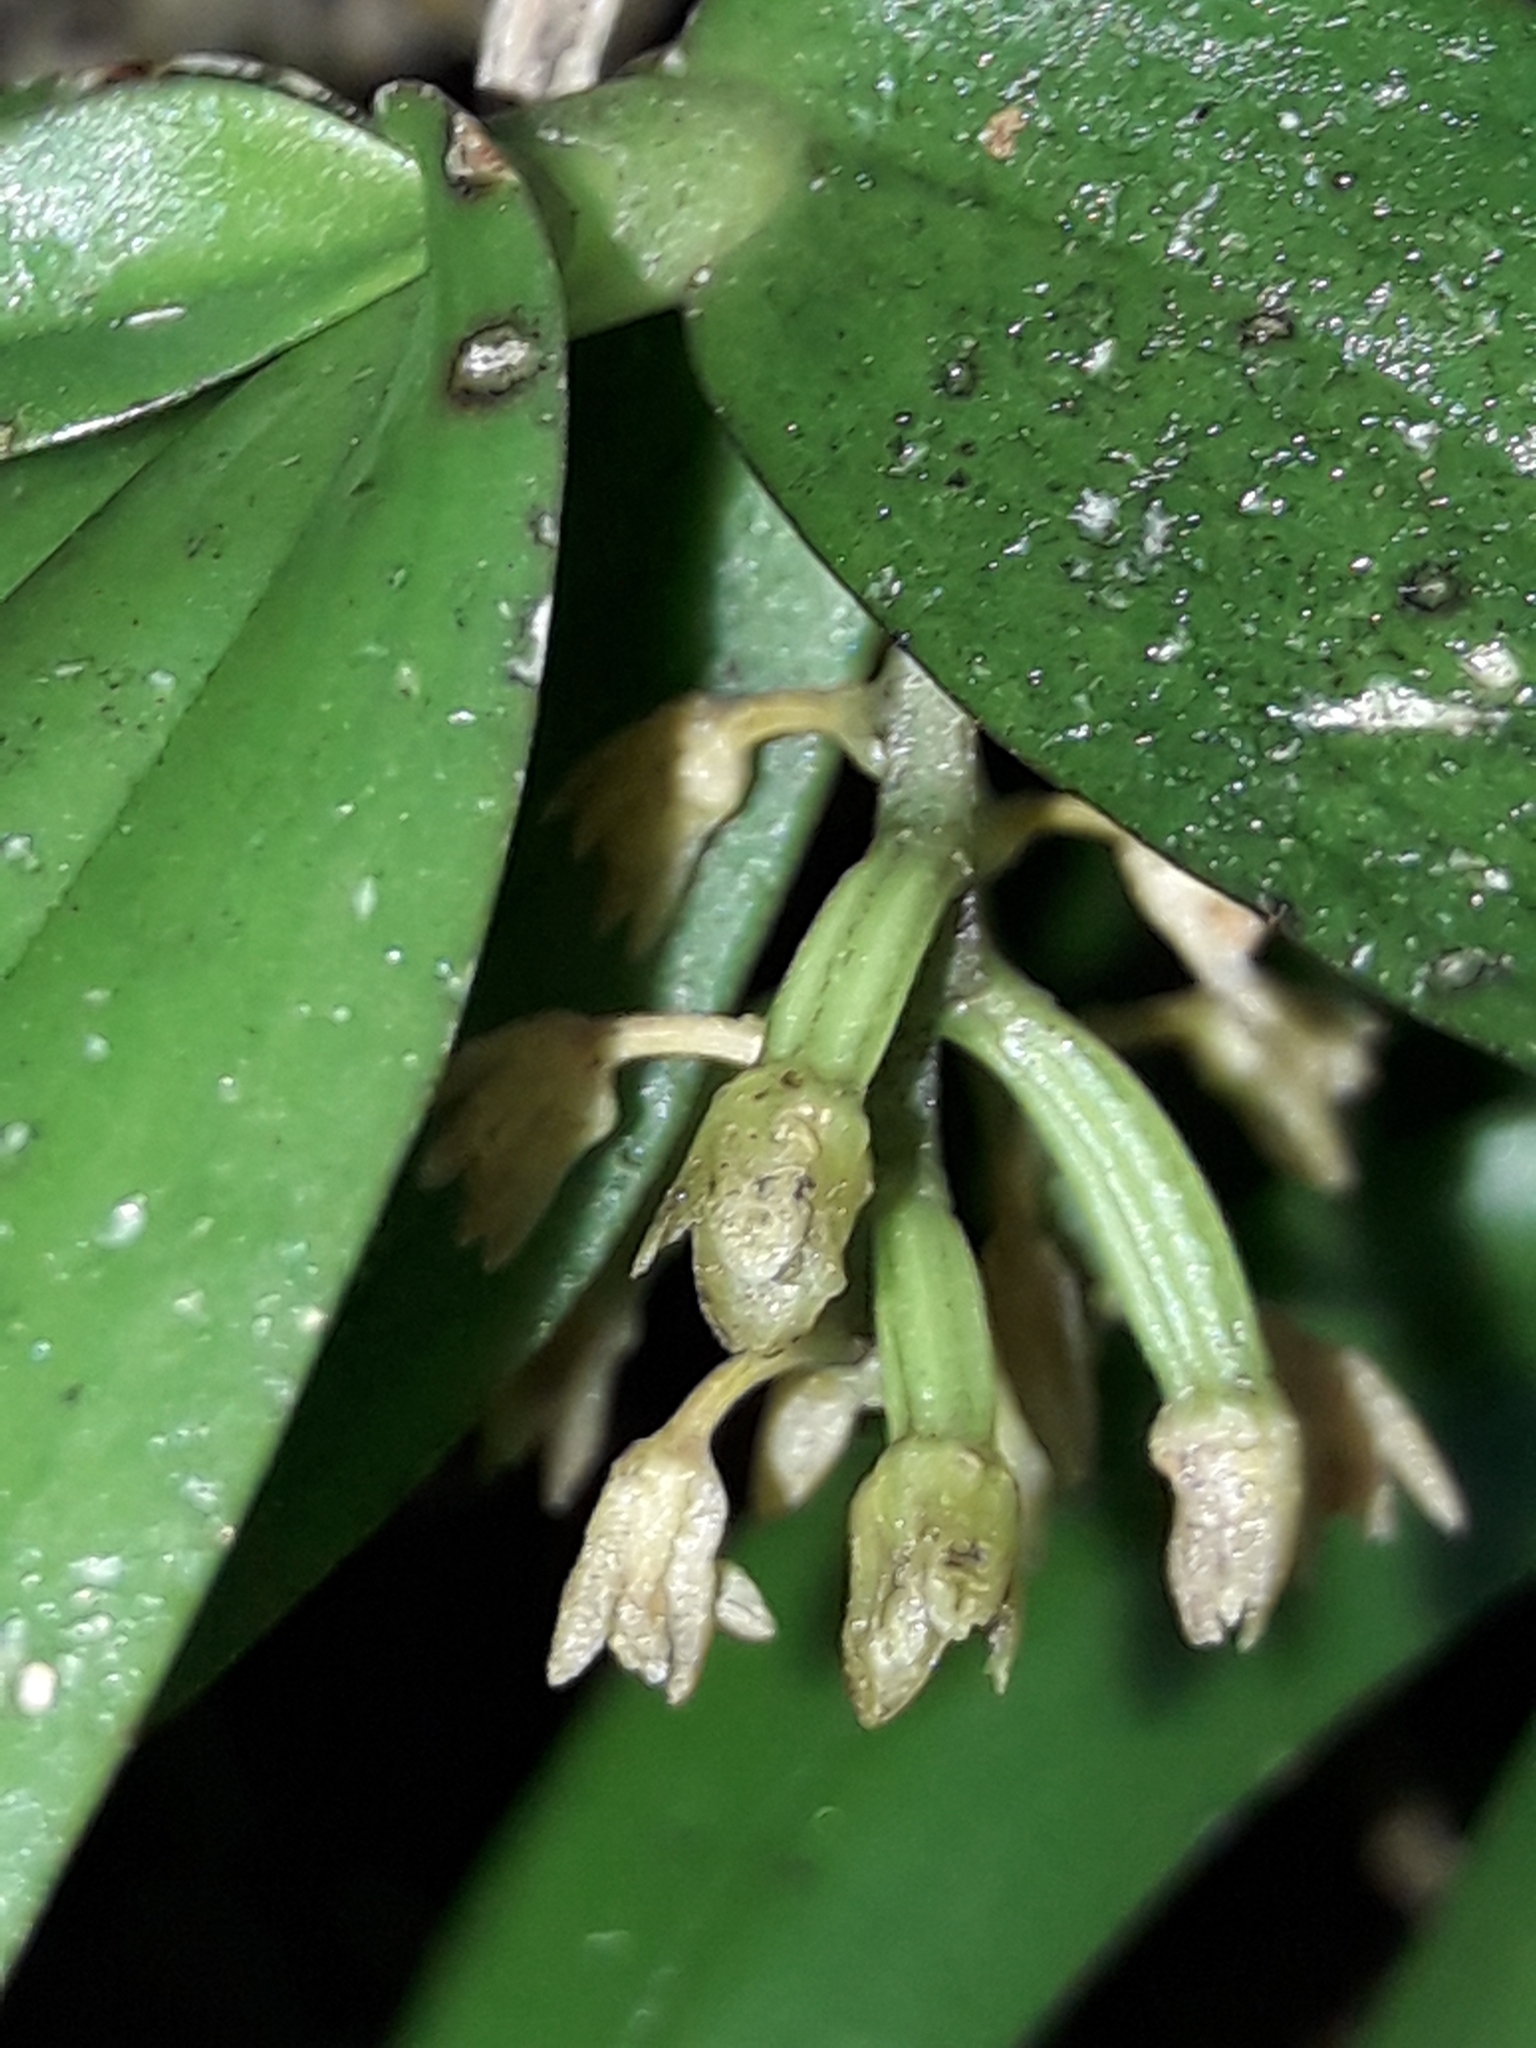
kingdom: Plantae
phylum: Tracheophyta
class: Liliopsida
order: Asparagales
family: Orchidaceae
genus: Drymoanthus
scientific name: Drymoanthus adversus
